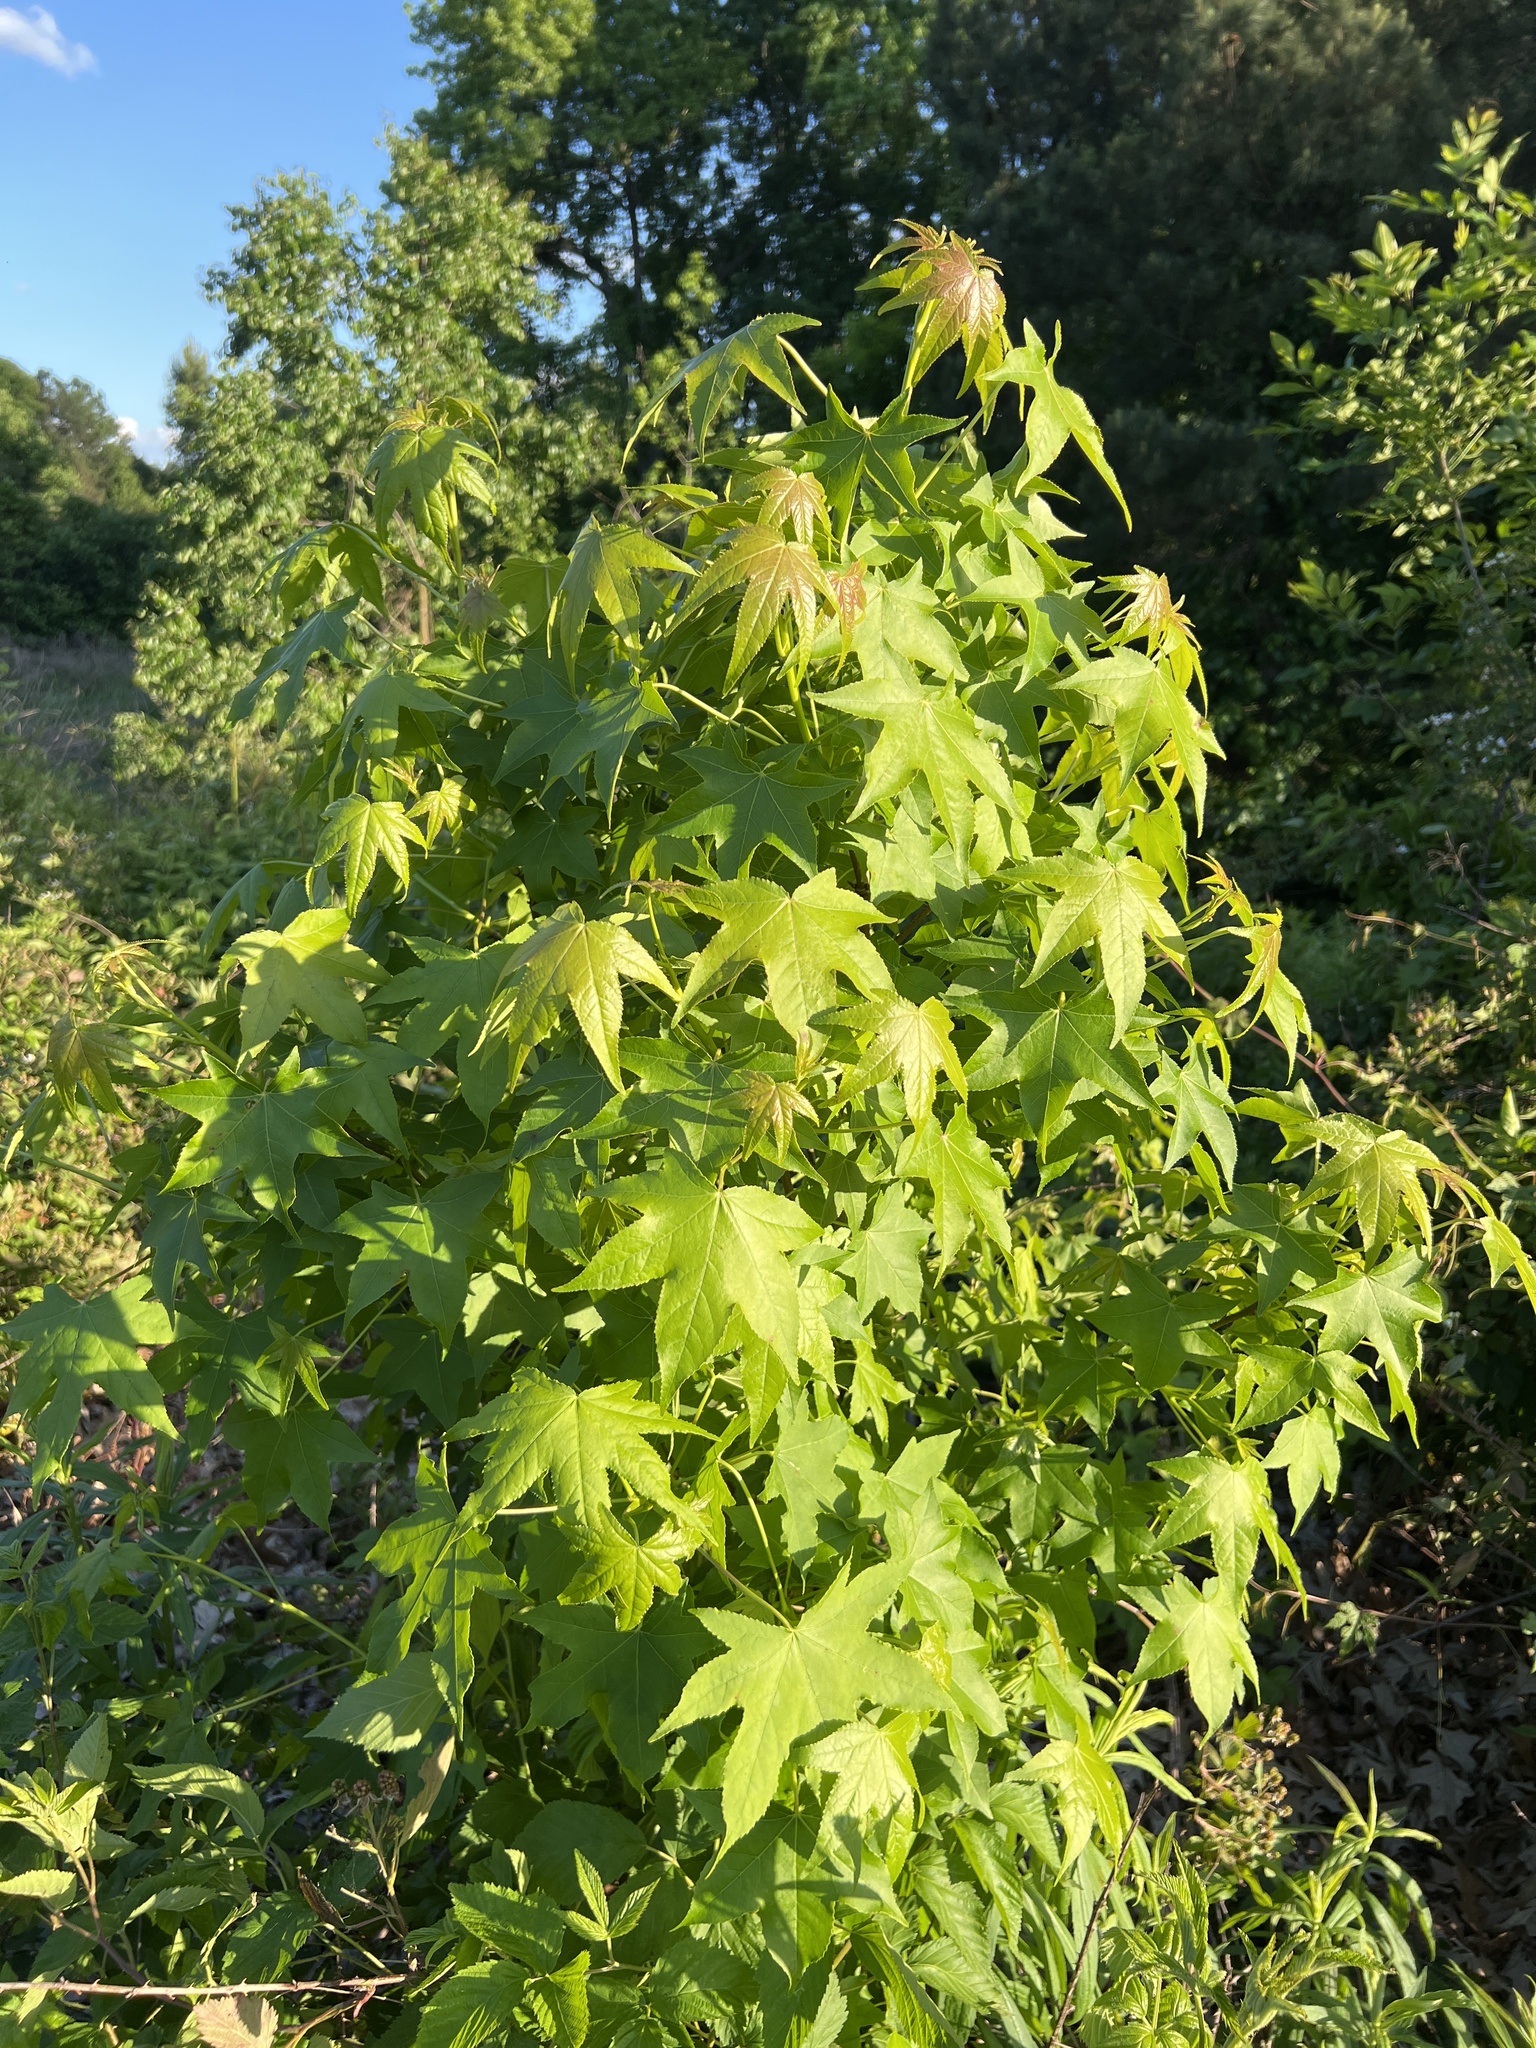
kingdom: Plantae
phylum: Tracheophyta
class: Magnoliopsida
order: Saxifragales
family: Altingiaceae
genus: Liquidambar
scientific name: Liquidambar styraciflua
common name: Sweet gum
